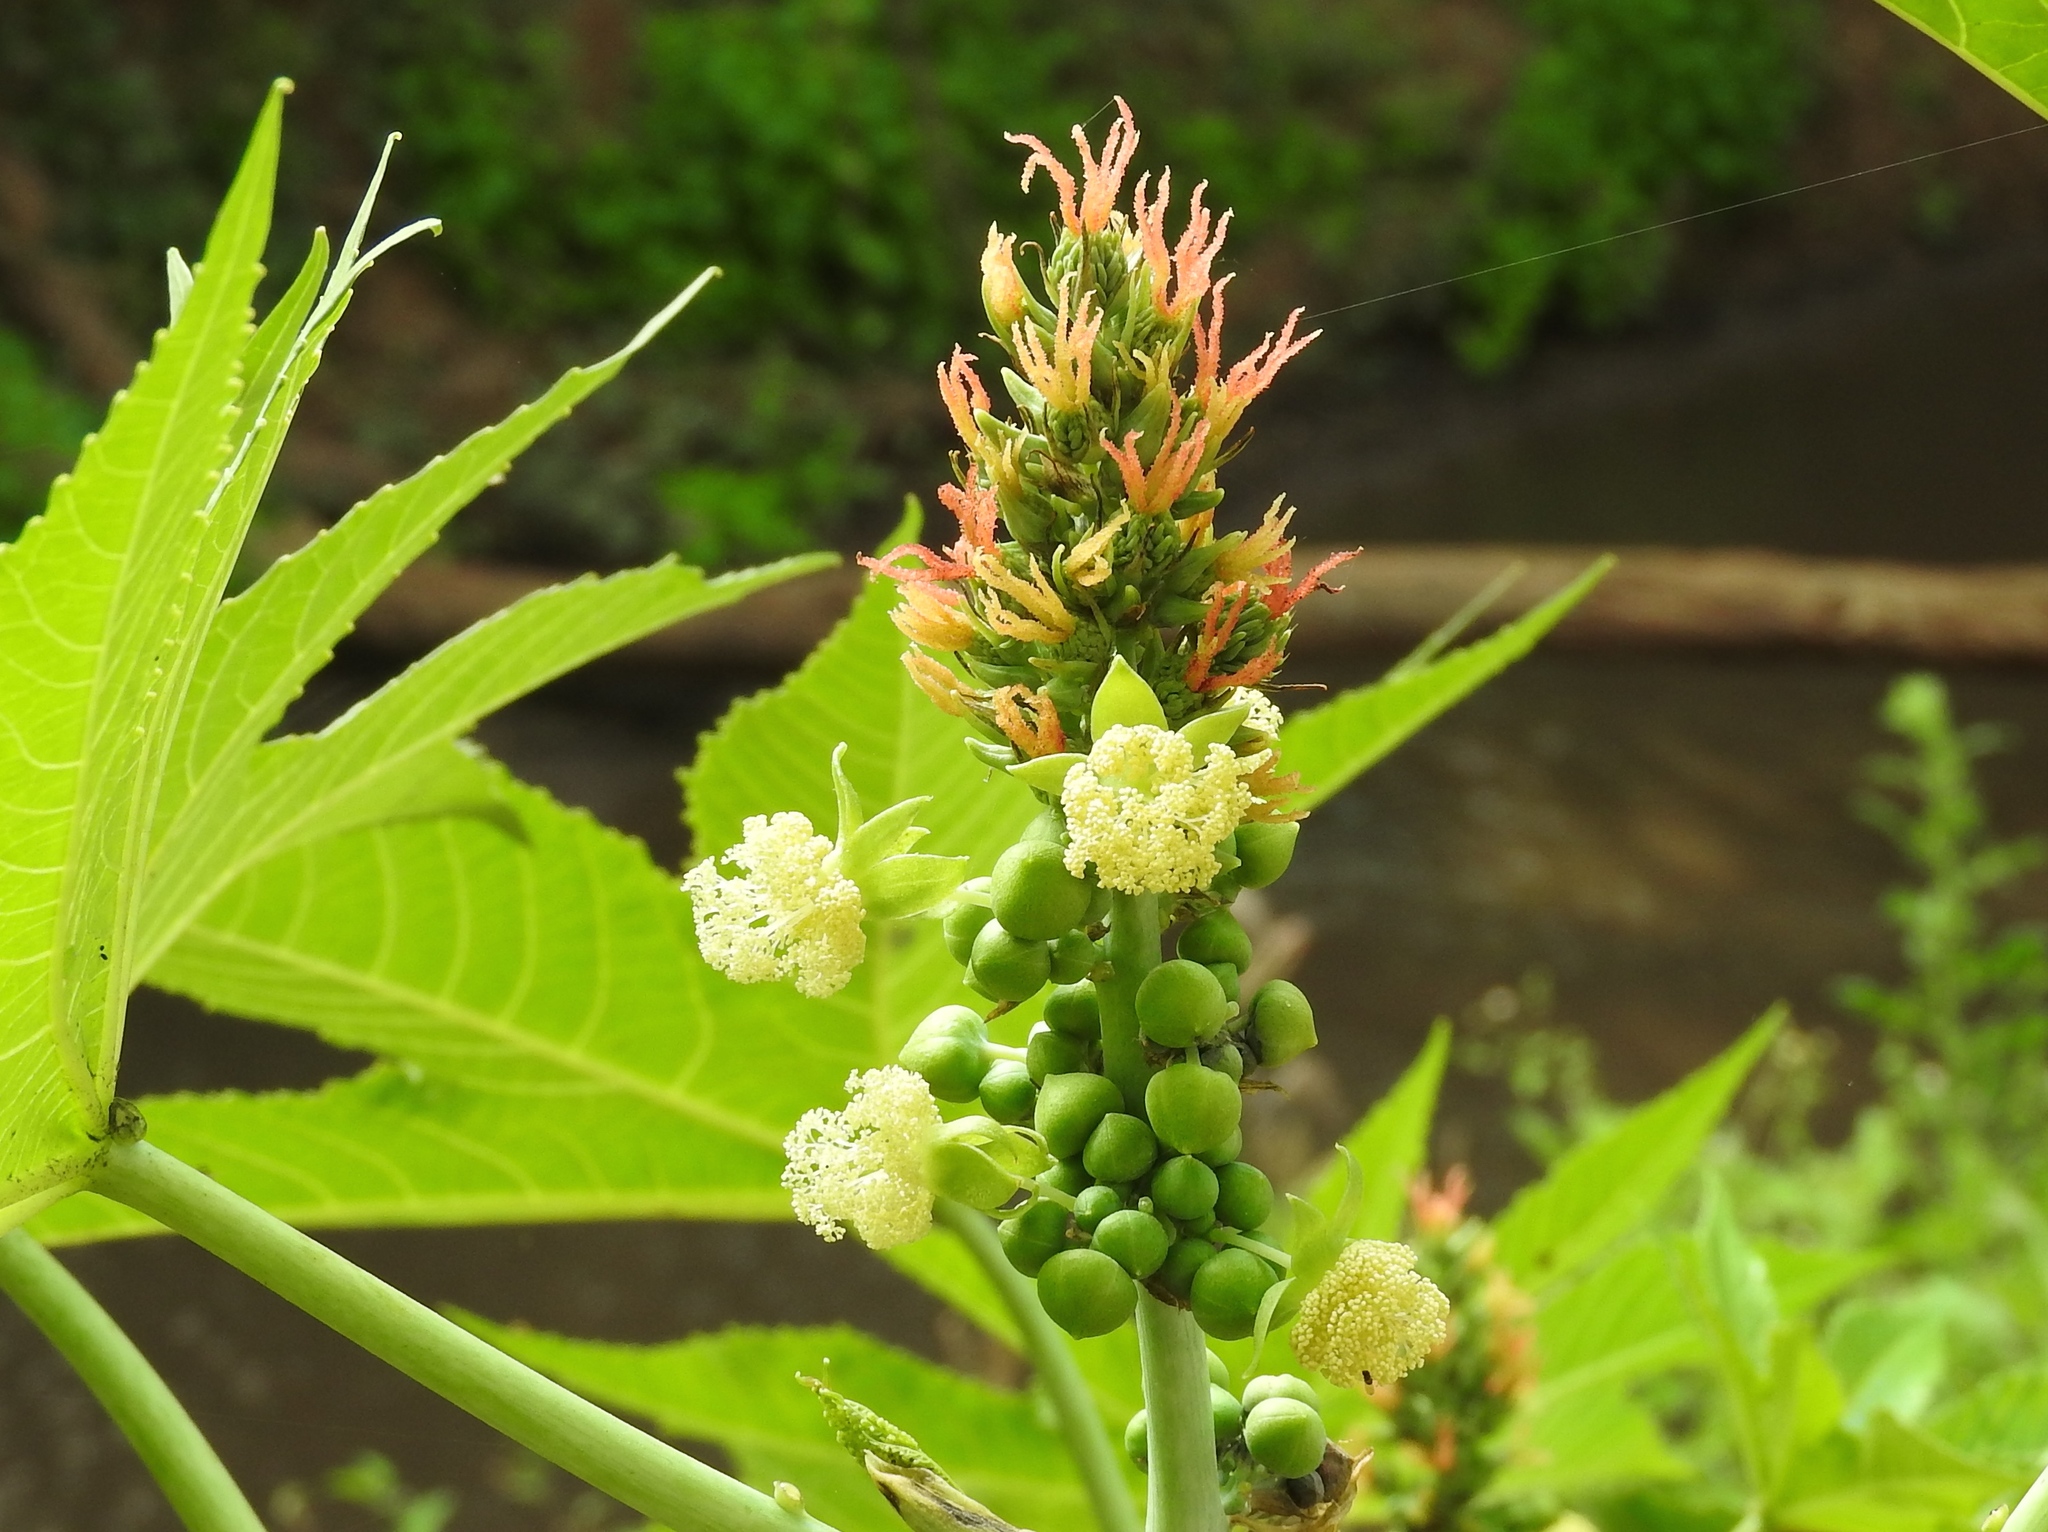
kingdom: Plantae
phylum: Tracheophyta
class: Magnoliopsida
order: Malpighiales
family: Euphorbiaceae
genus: Ricinus
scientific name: Ricinus communis
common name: Castor-oil-plant
